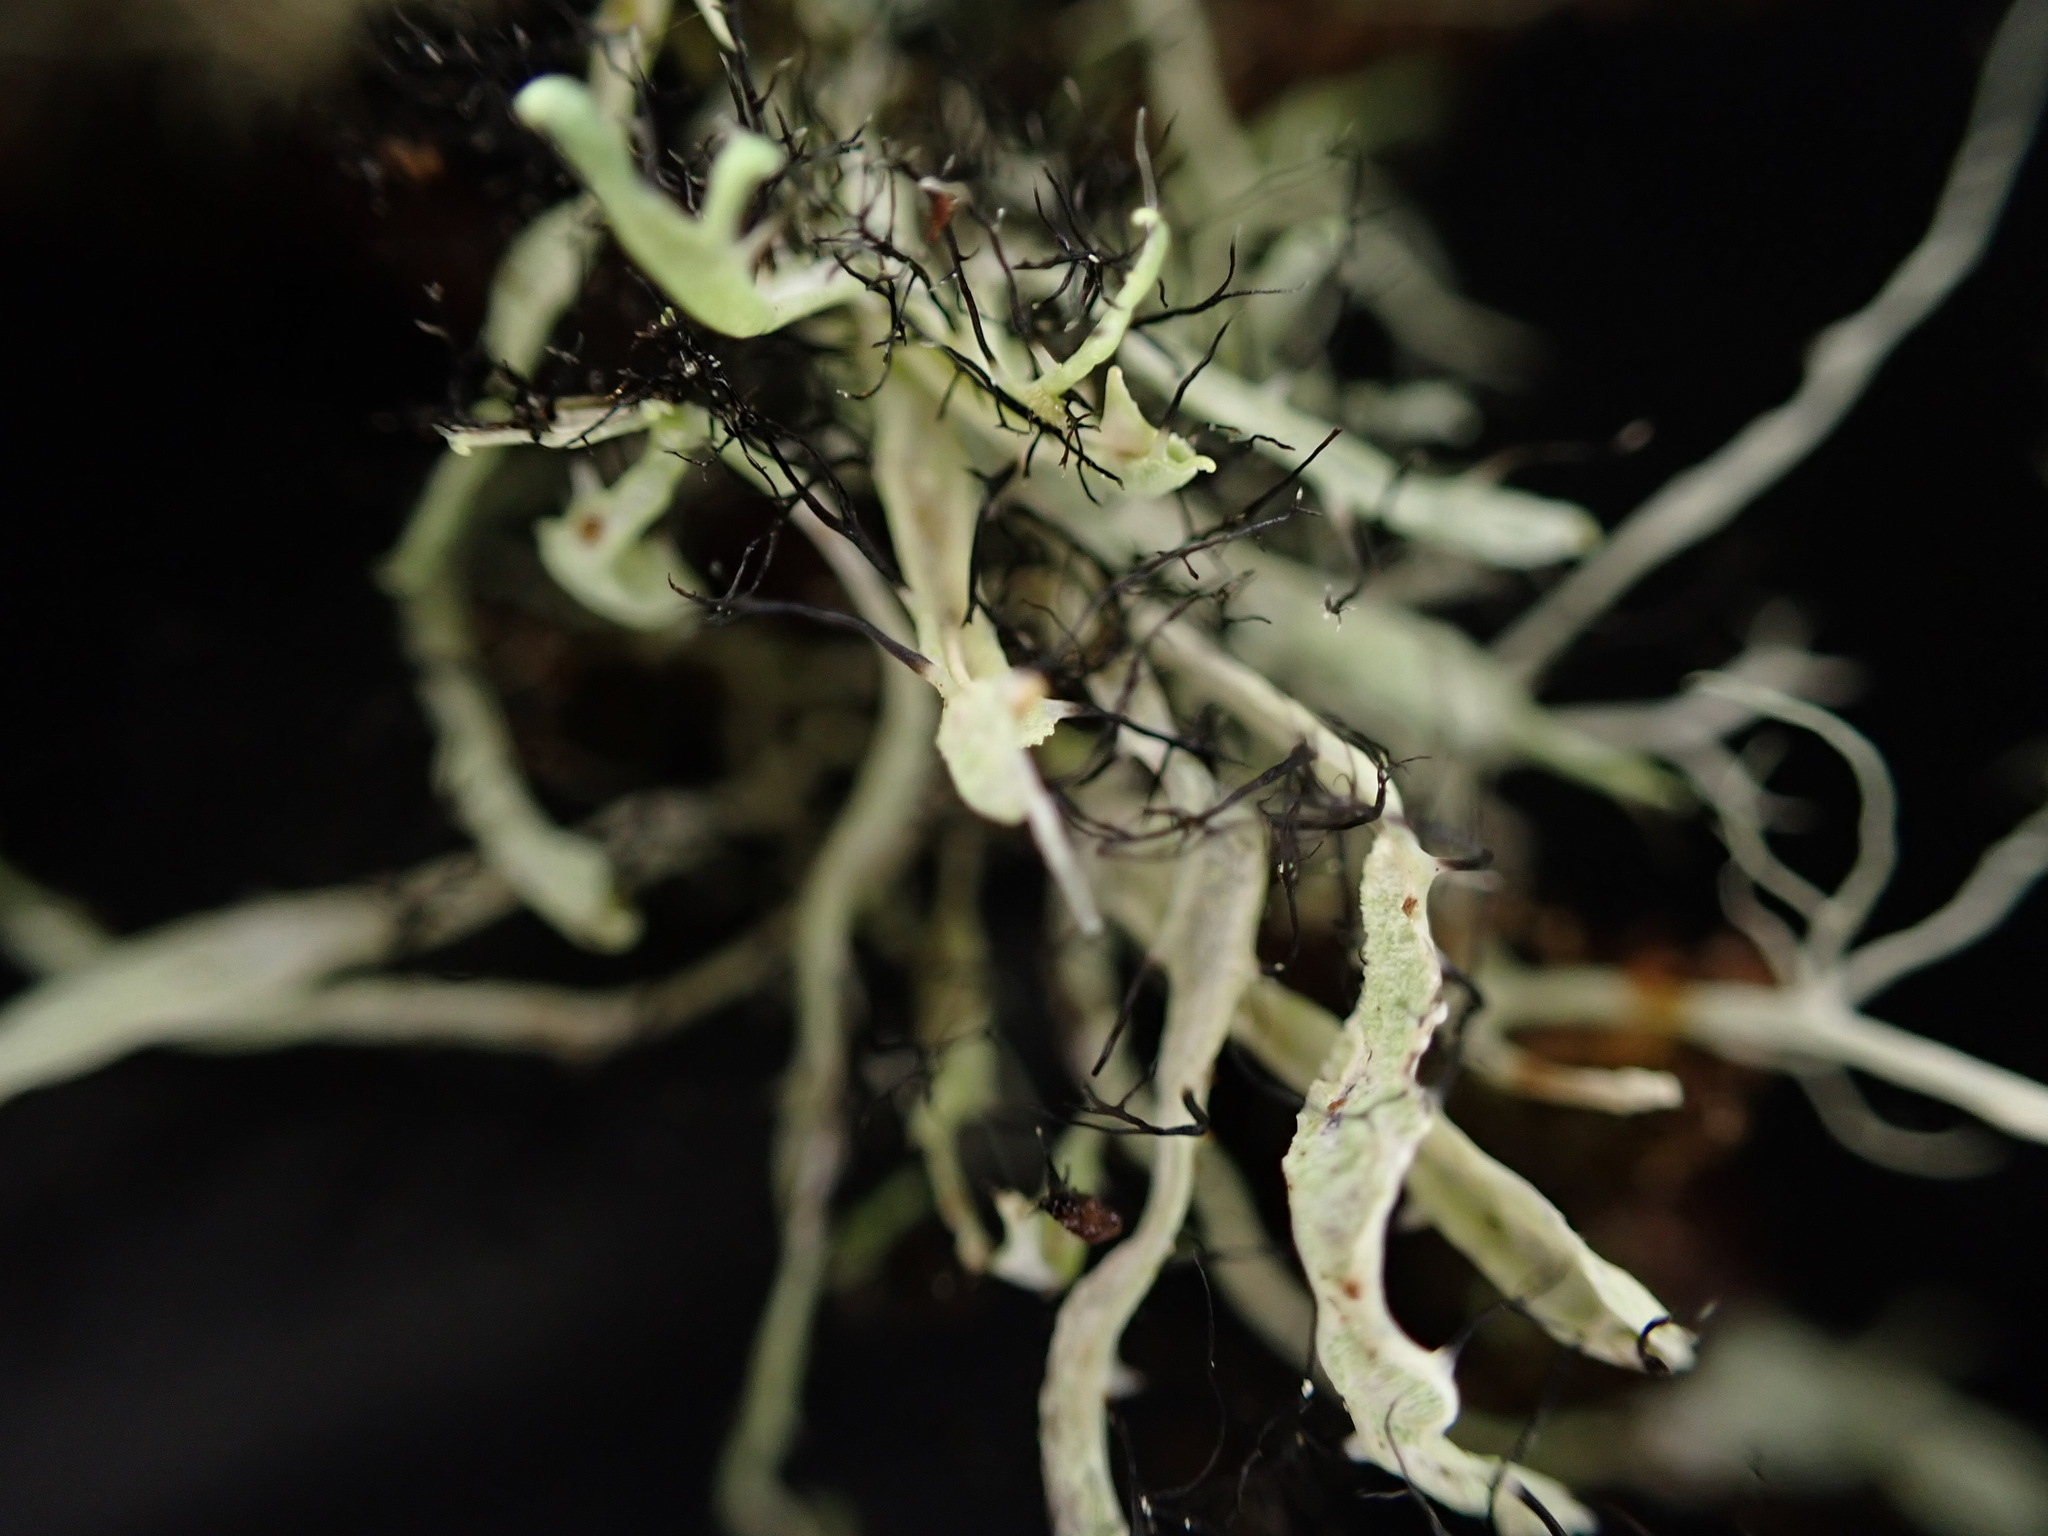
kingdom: Fungi
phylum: Ascomycota
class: Lecanoromycetes
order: Caliciales
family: Physciaceae
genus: Leucodermia
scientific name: Leucodermia leucomelos
